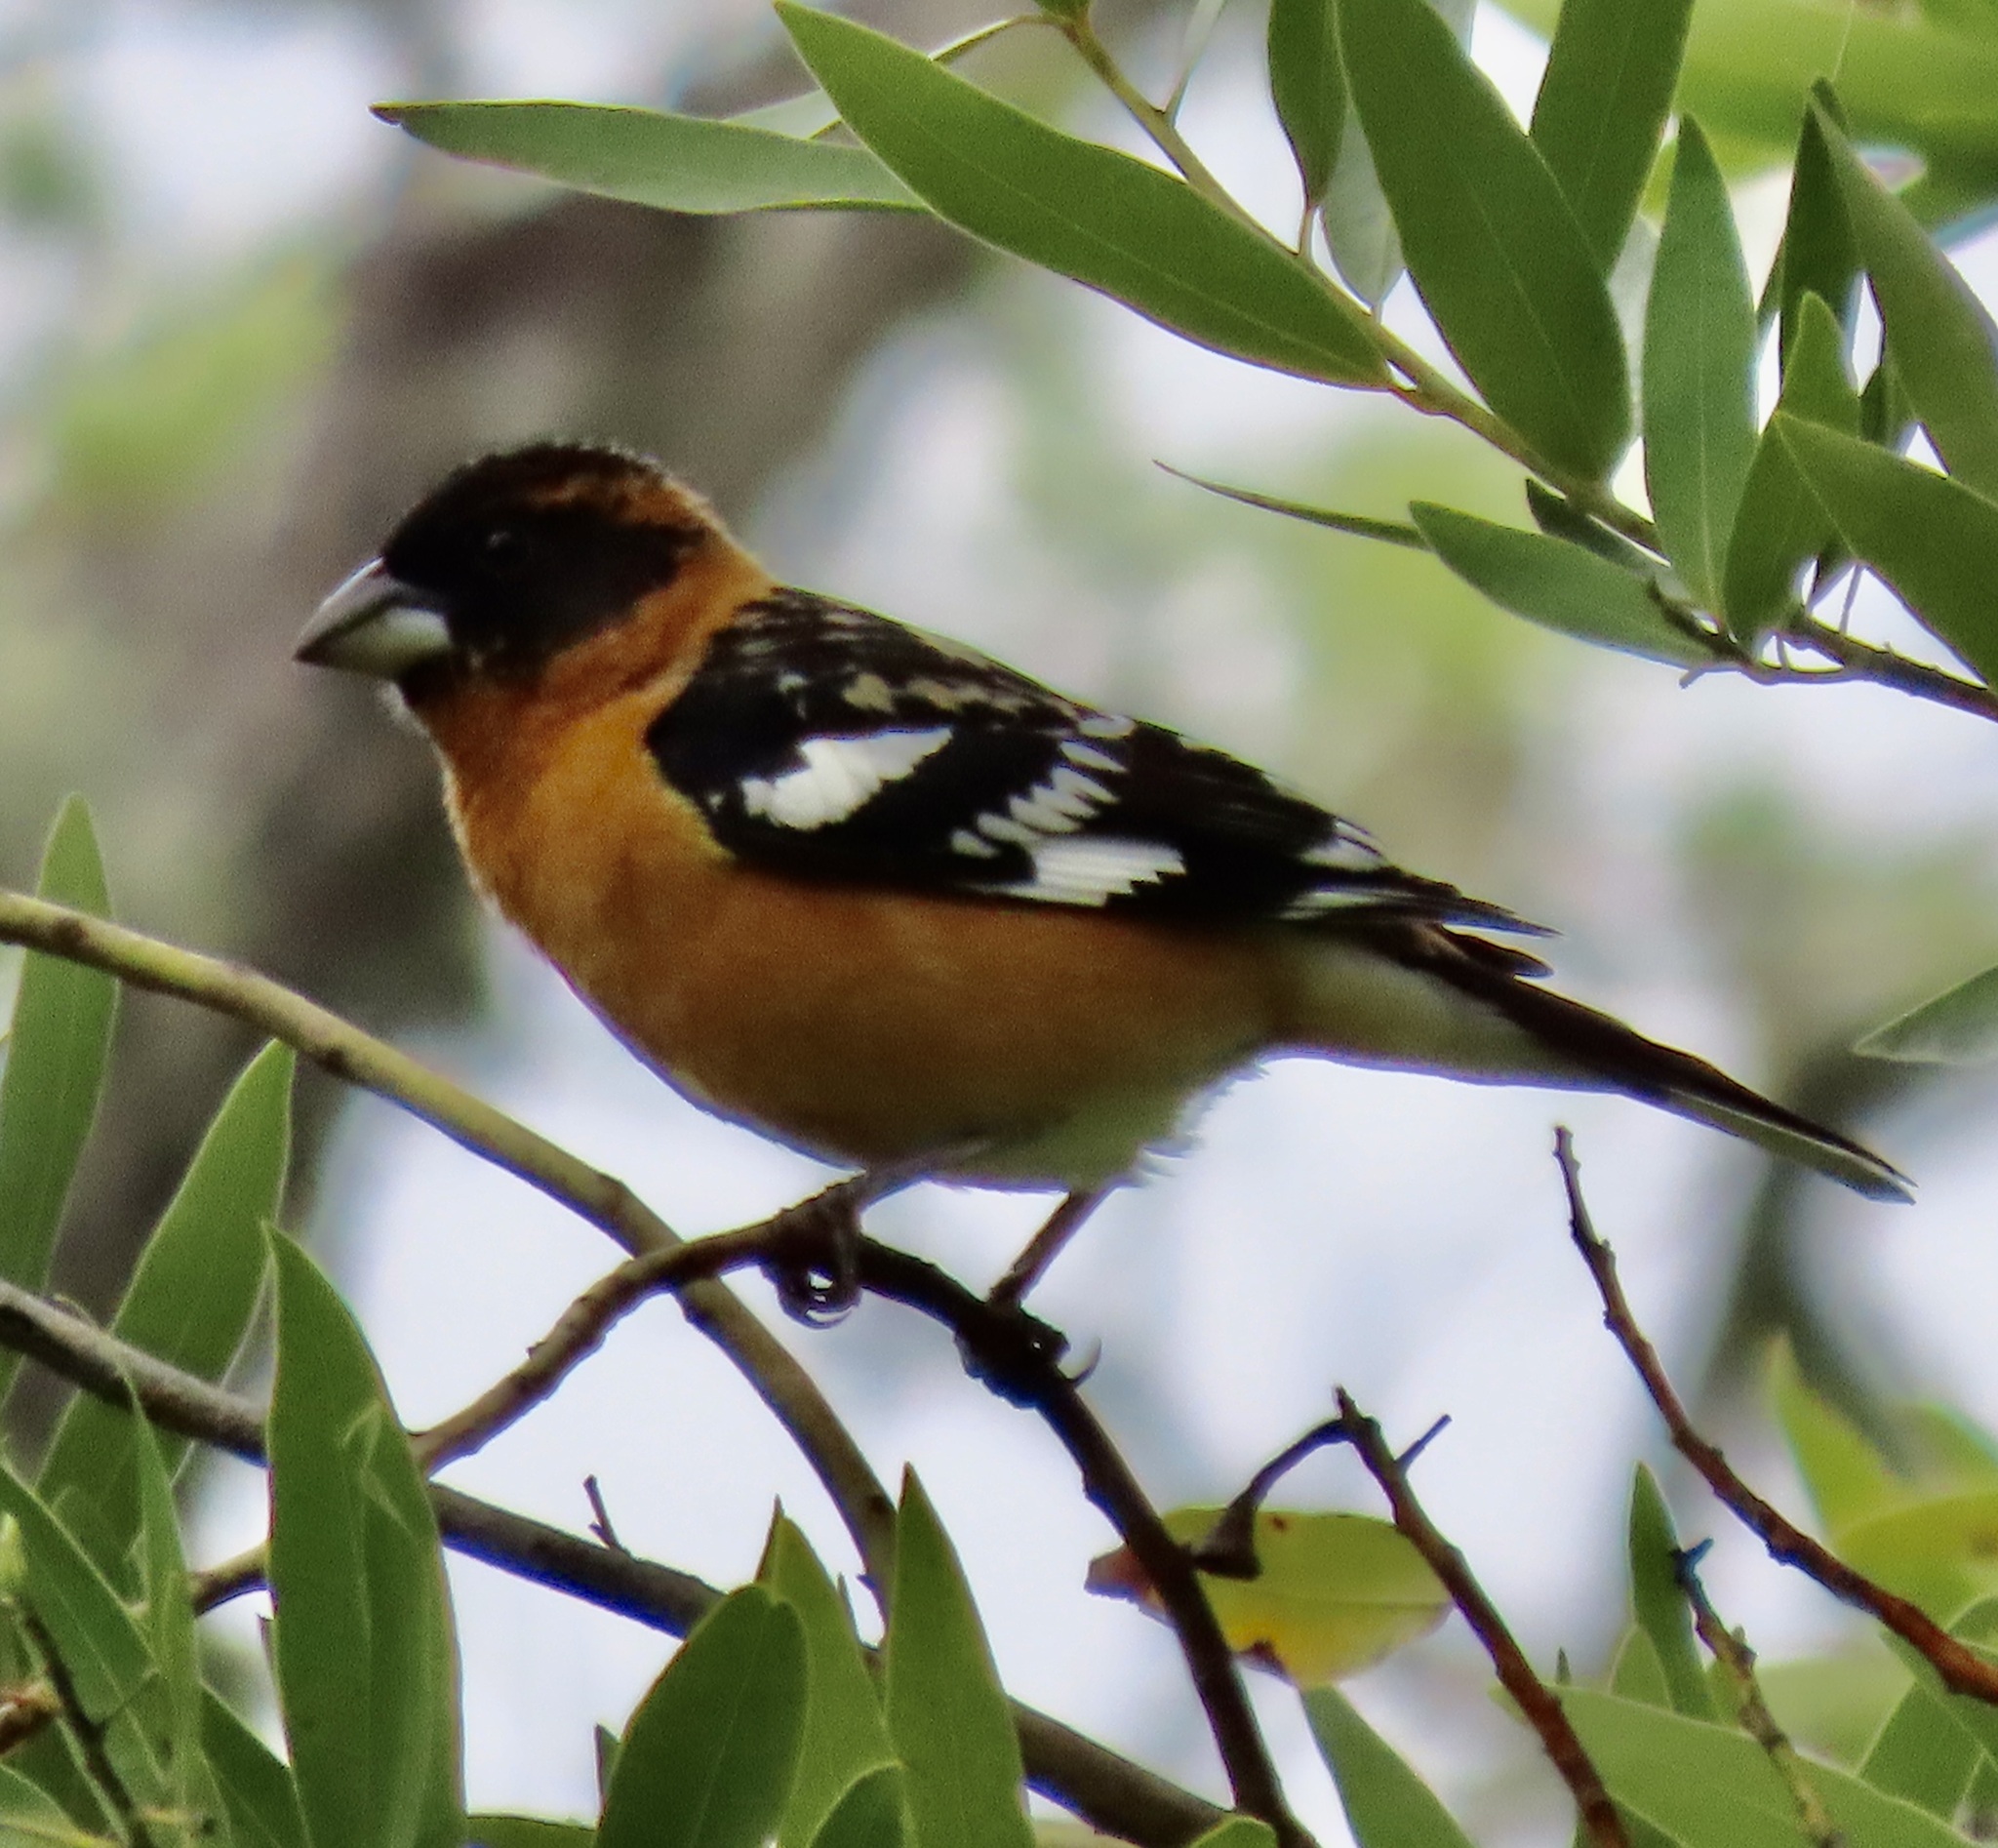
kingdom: Animalia
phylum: Chordata
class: Aves
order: Passeriformes
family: Cardinalidae
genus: Pheucticus
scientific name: Pheucticus melanocephalus
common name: Black-headed grosbeak
